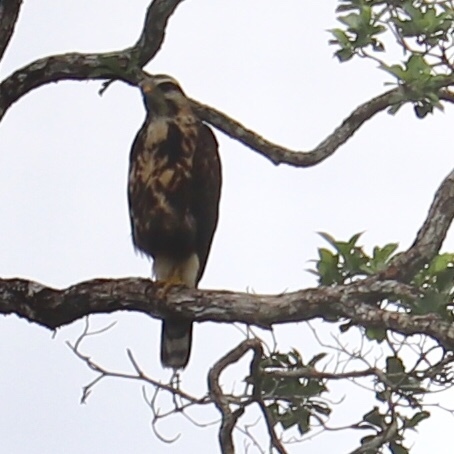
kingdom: Animalia
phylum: Chordata
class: Aves
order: Accipitriformes
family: Accipitridae
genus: Rostrhamus
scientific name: Rostrhamus sociabilis
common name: Snail kite
